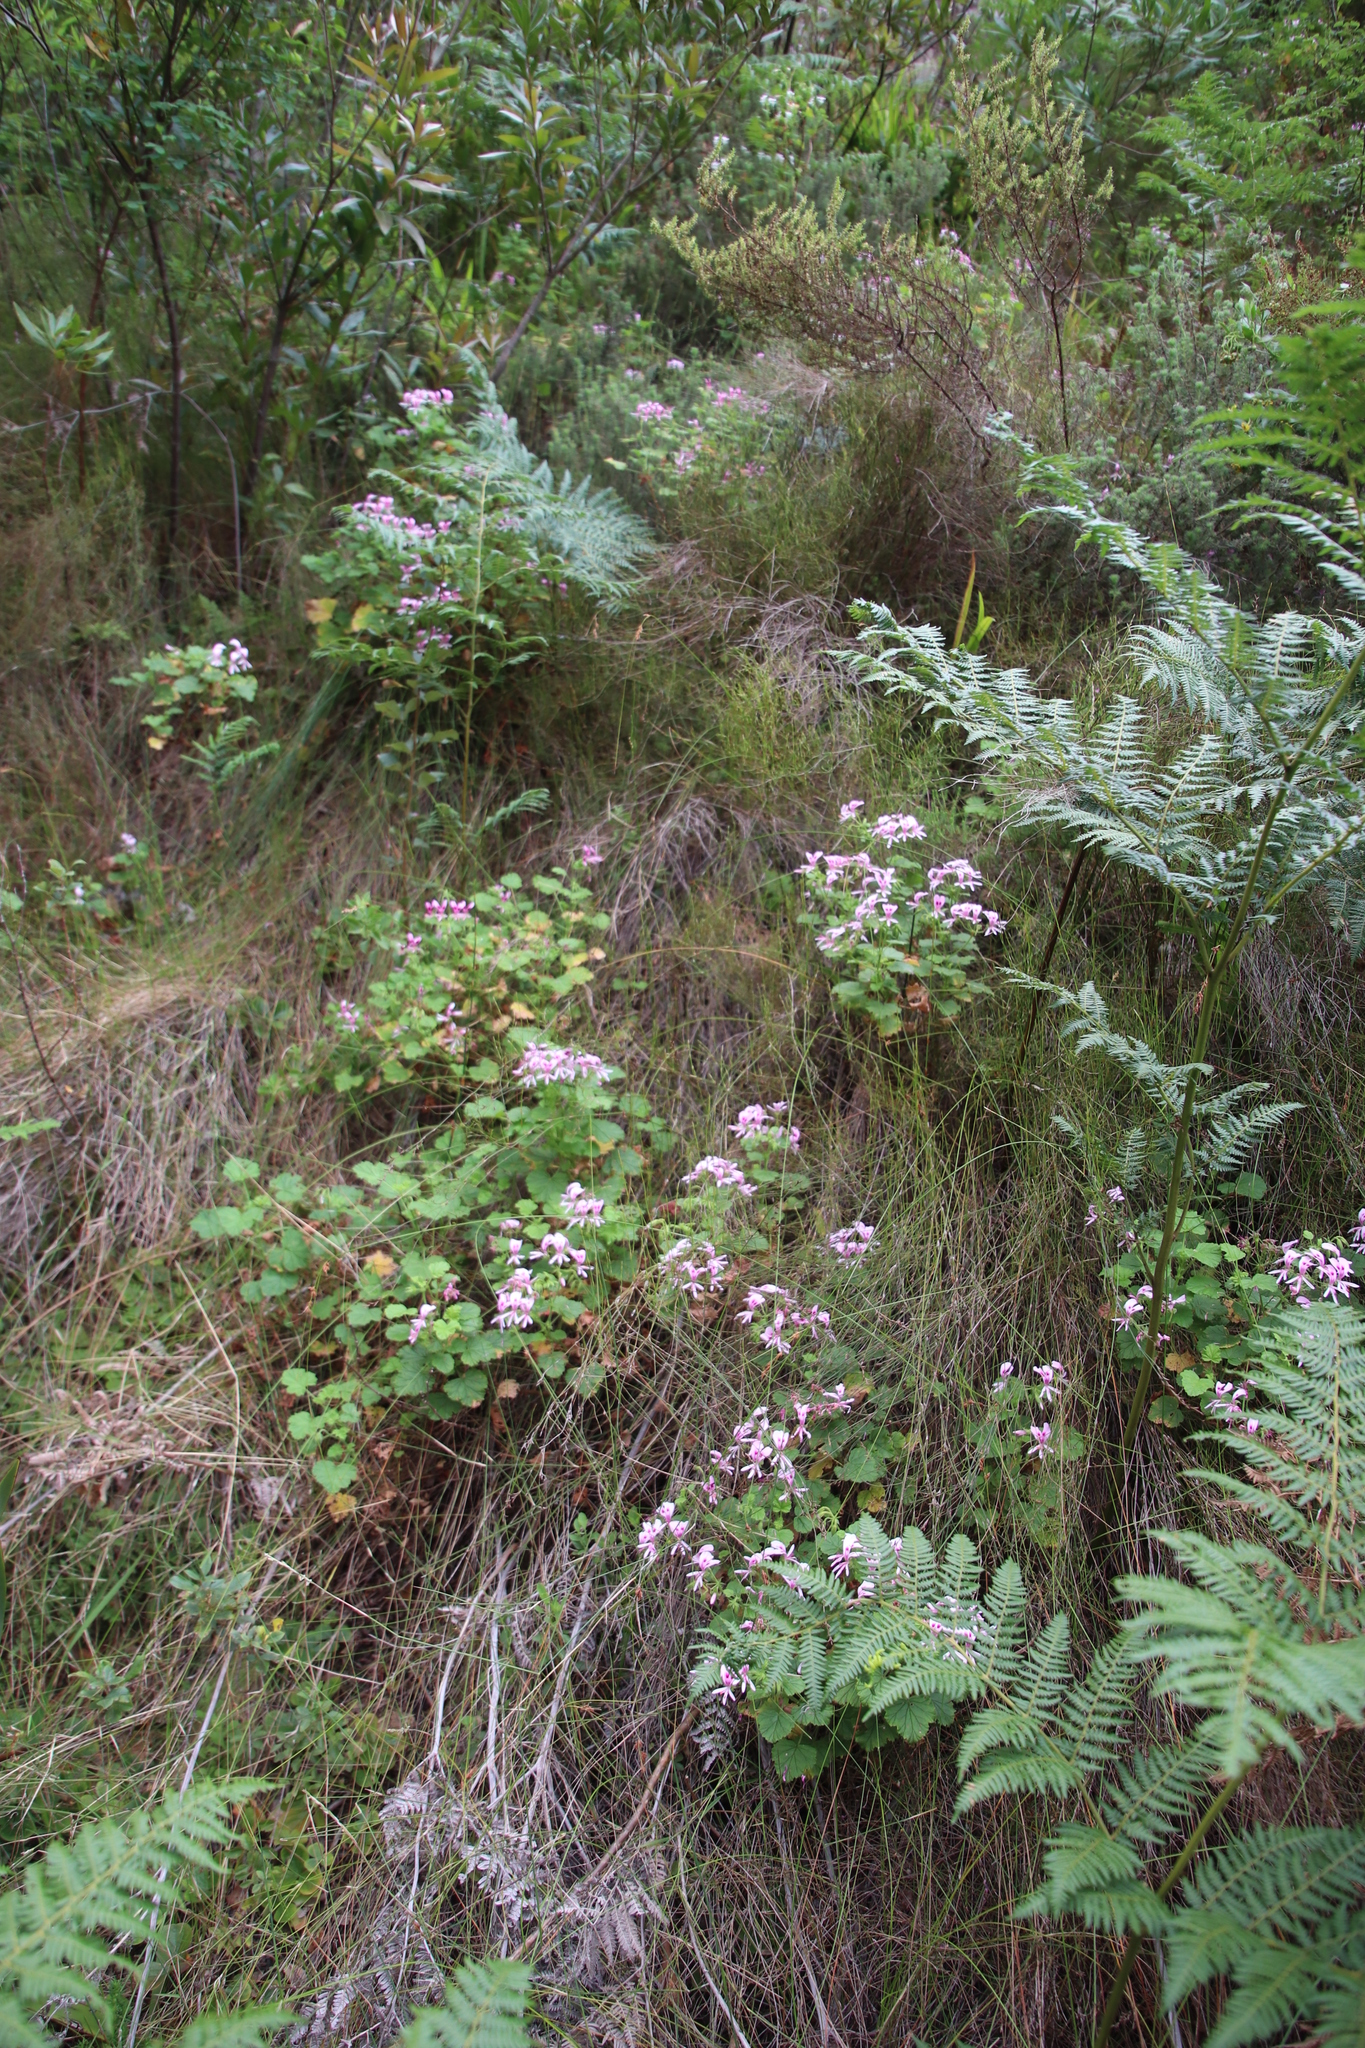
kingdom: Plantae
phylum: Tracheophyta
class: Magnoliopsida
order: Geraniales
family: Geraniaceae
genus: Pelargonium
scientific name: Pelargonium greytonense
